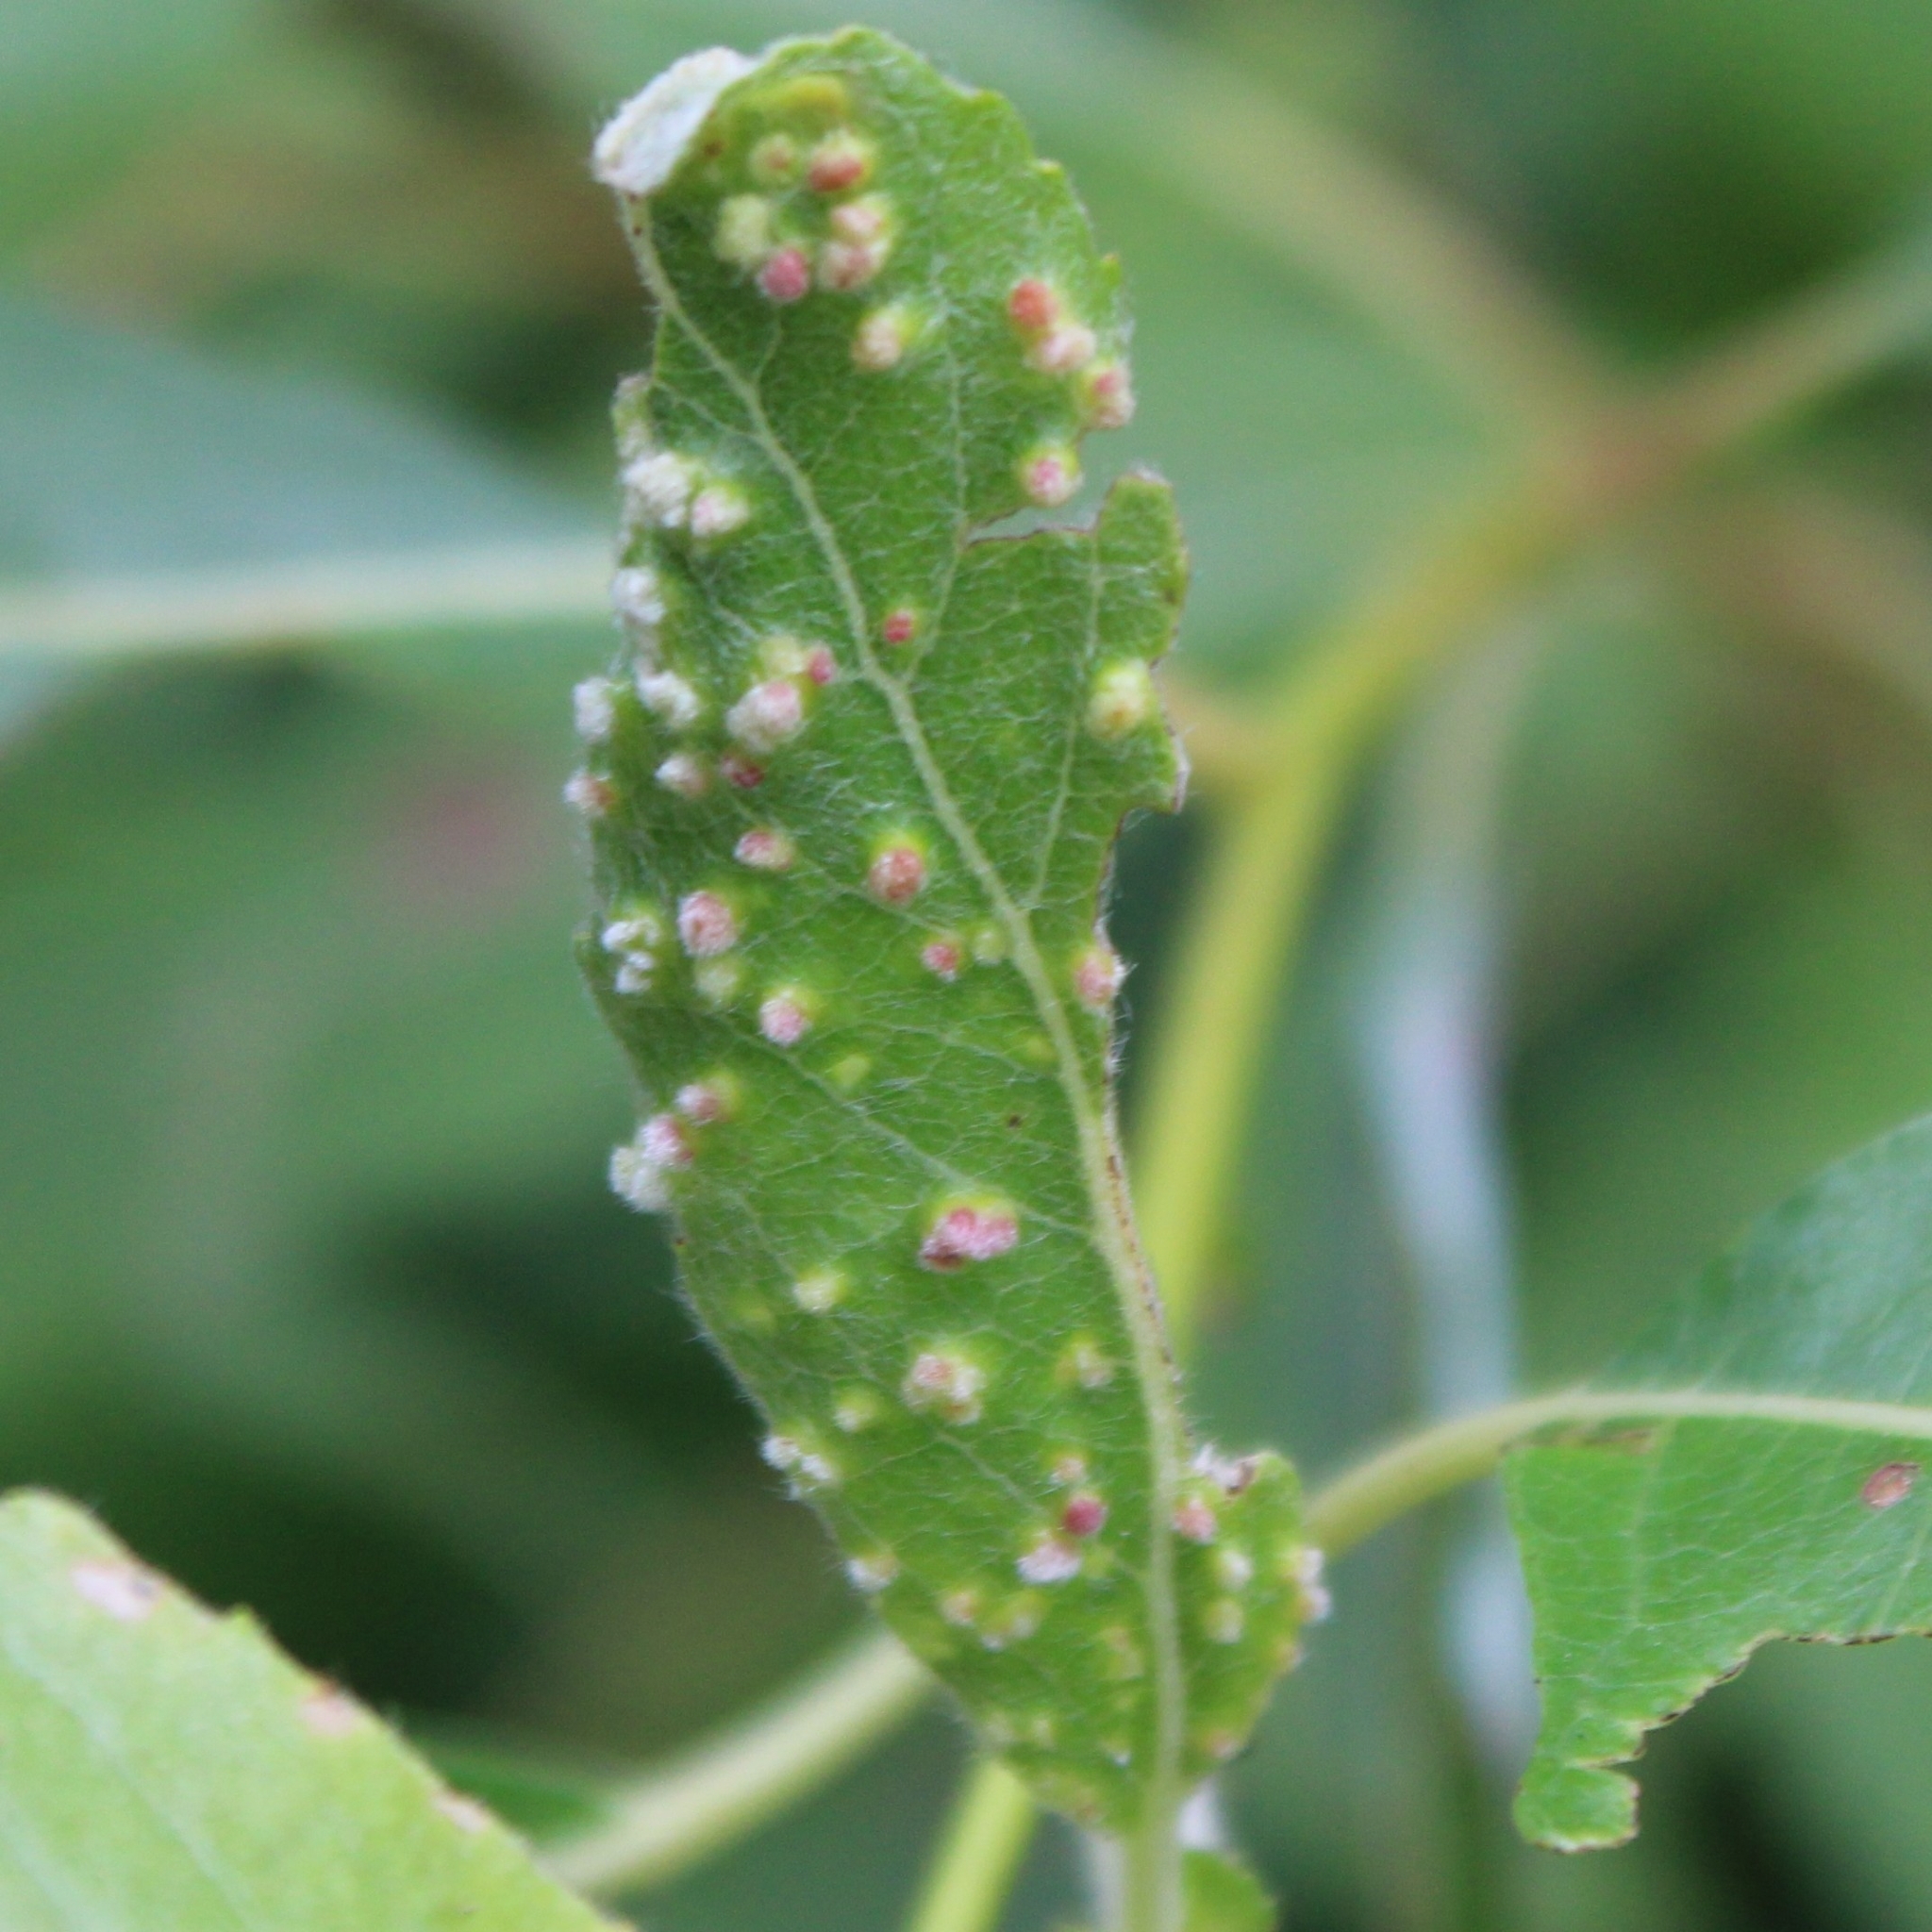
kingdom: Animalia
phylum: Arthropoda
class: Arachnida
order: Trombidiformes
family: Eriophyidae
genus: Aculus
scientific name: Aculus tetanothrix
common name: Willow bead gall mite
